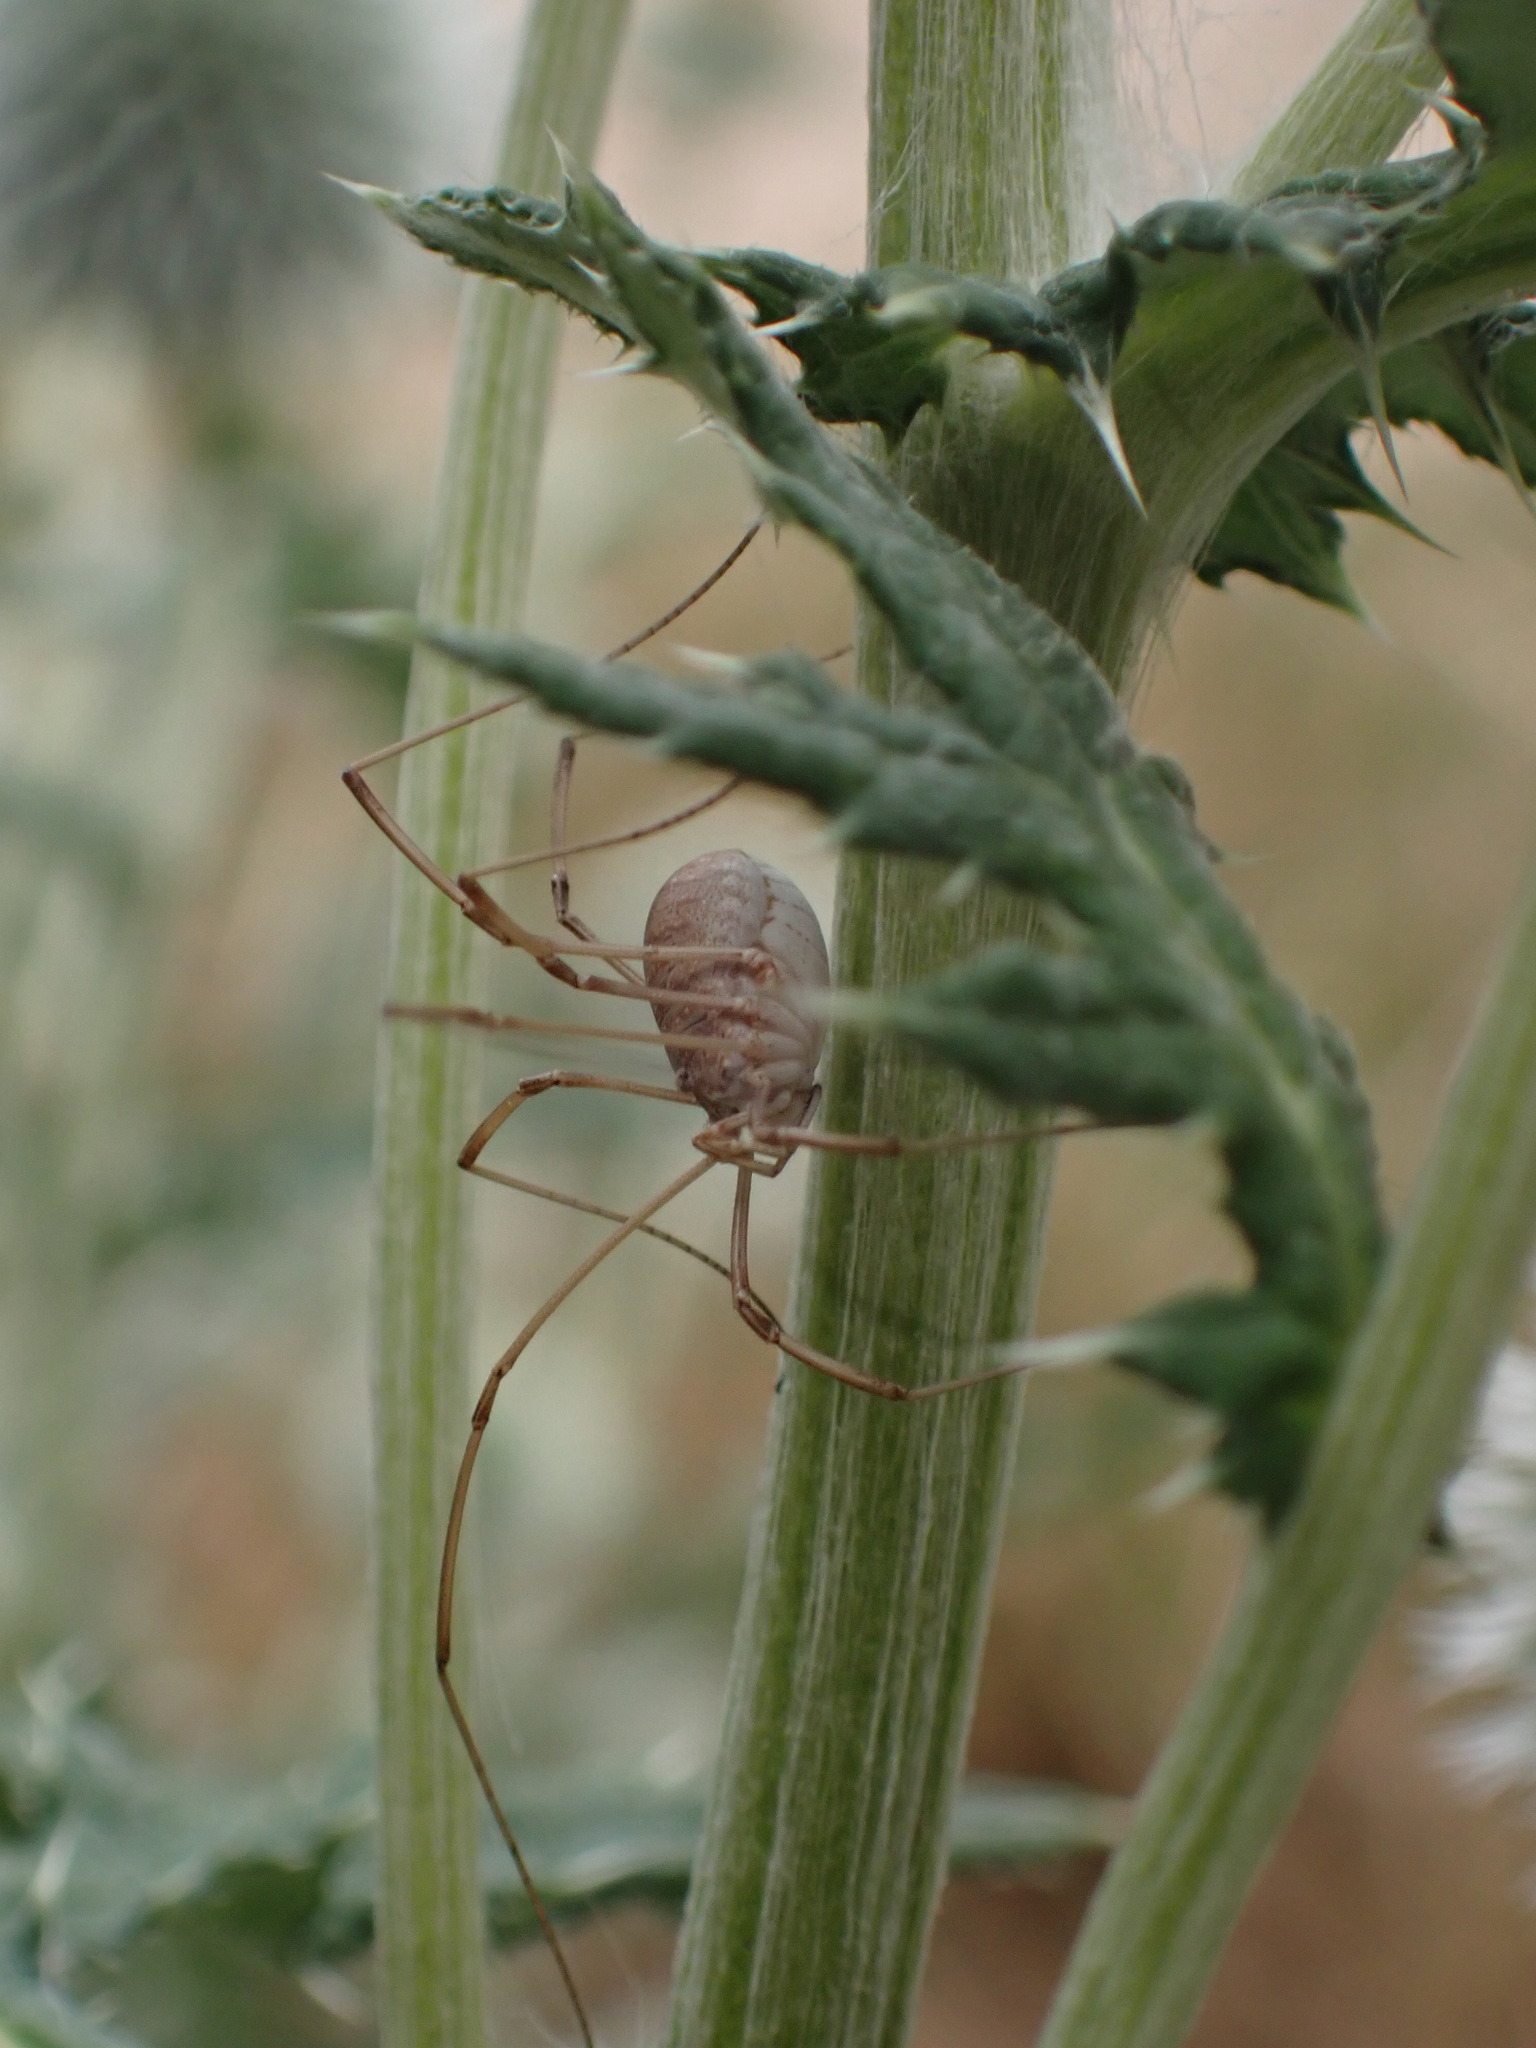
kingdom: Animalia
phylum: Arthropoda
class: Arachnida
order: Opiliones
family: Phalangiidae
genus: Phalangium
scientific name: Phalangium opilio
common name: Daddy longleg
